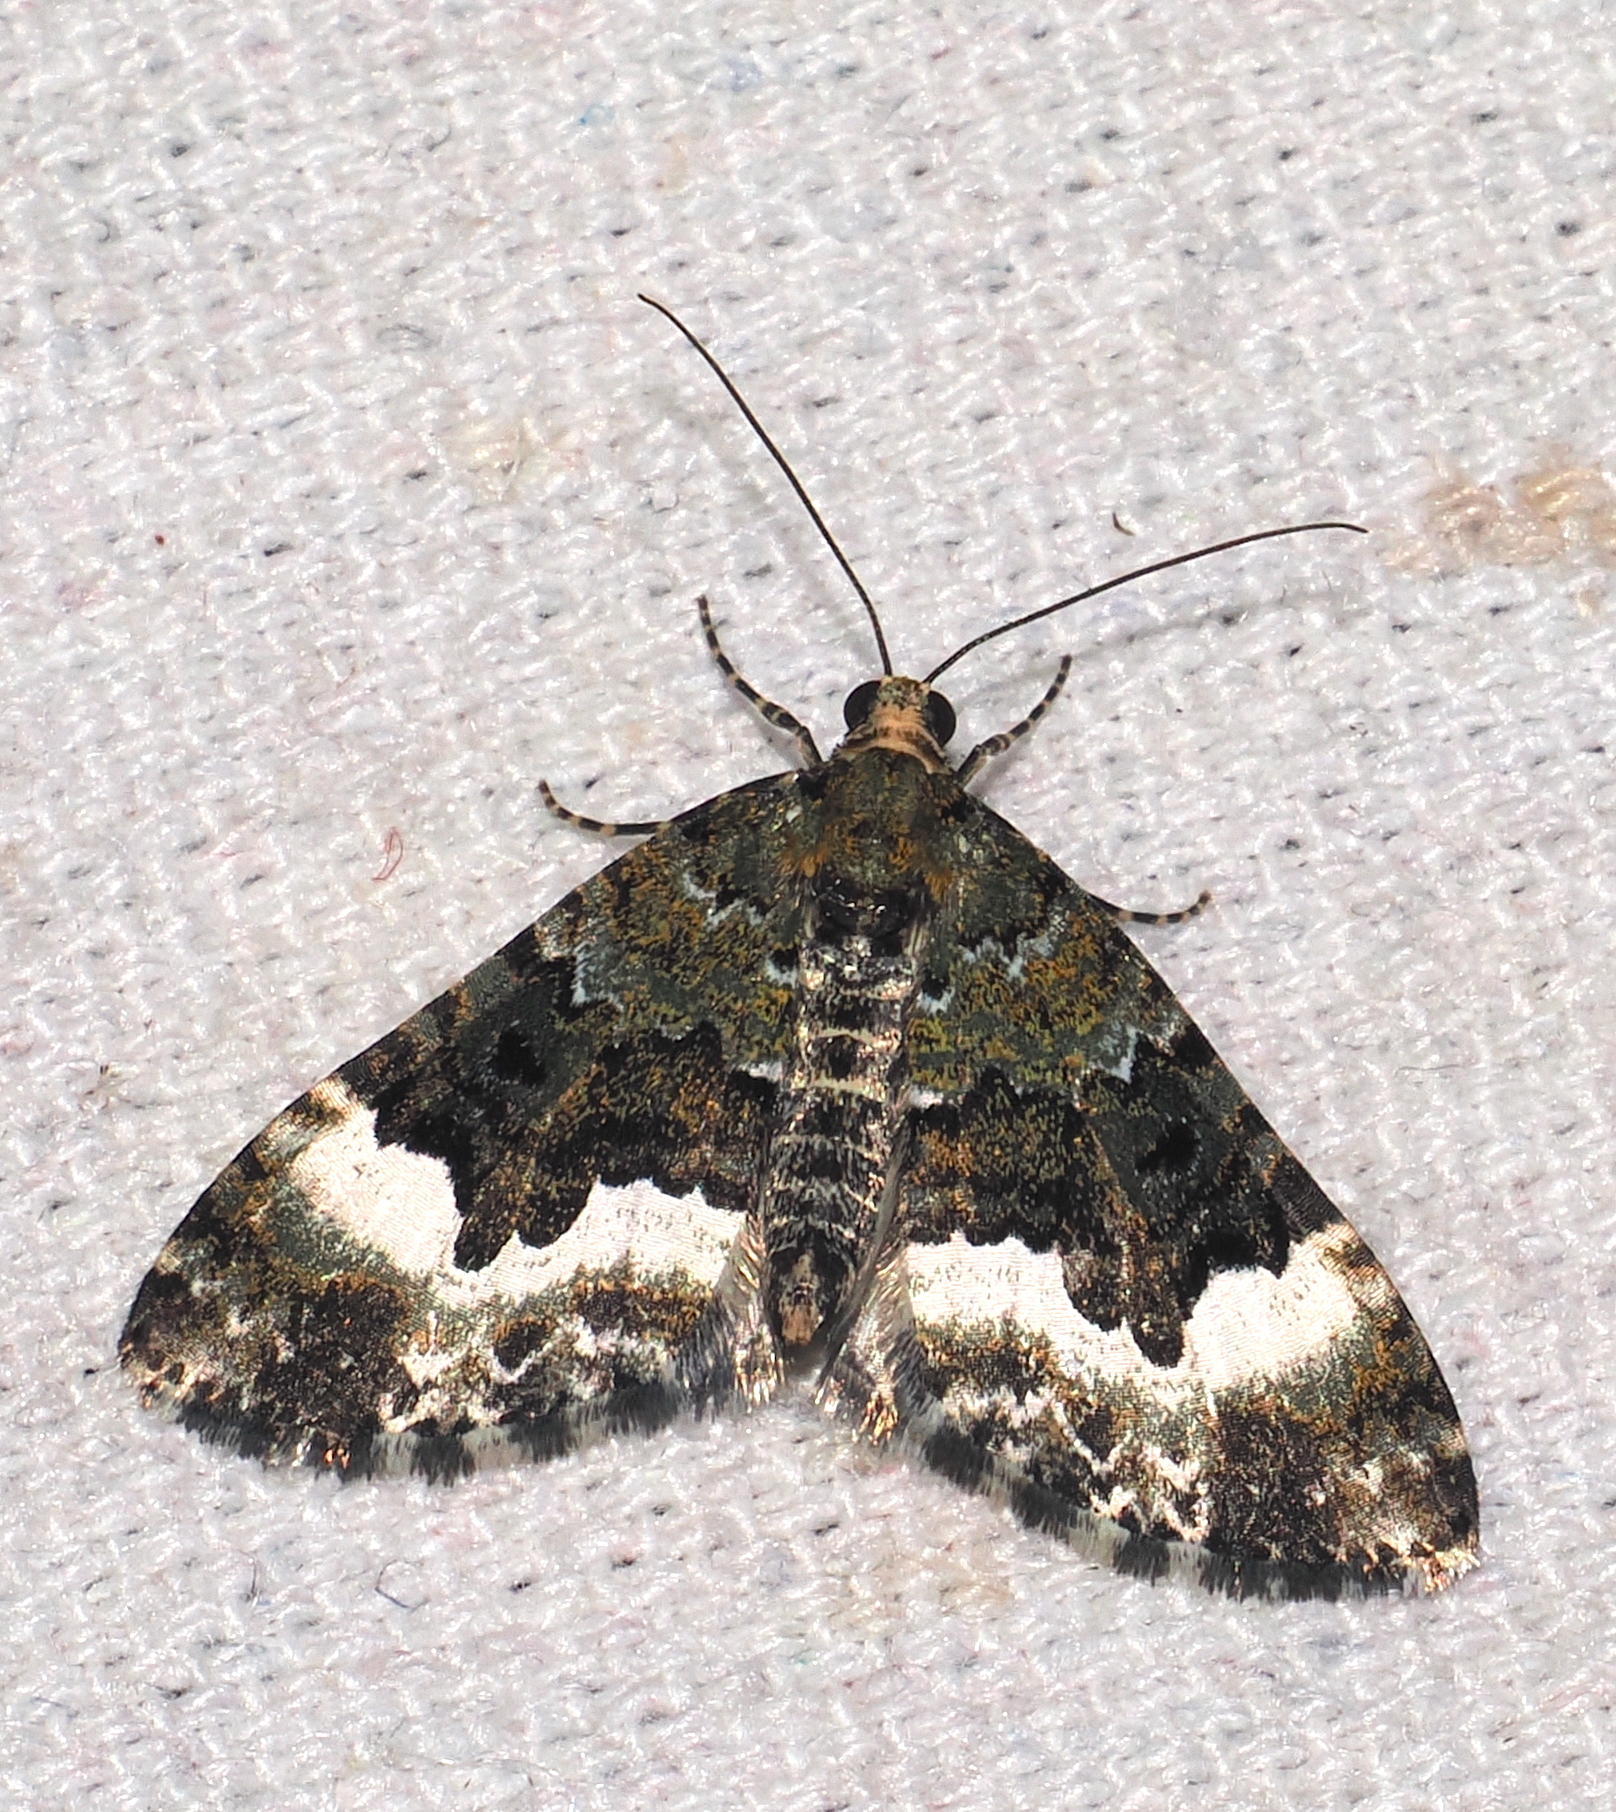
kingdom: Animalia
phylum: Arthropoda
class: Insecta
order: Lepidoptera
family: Geometridae
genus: Euphyia
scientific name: Euphyia porraceata
